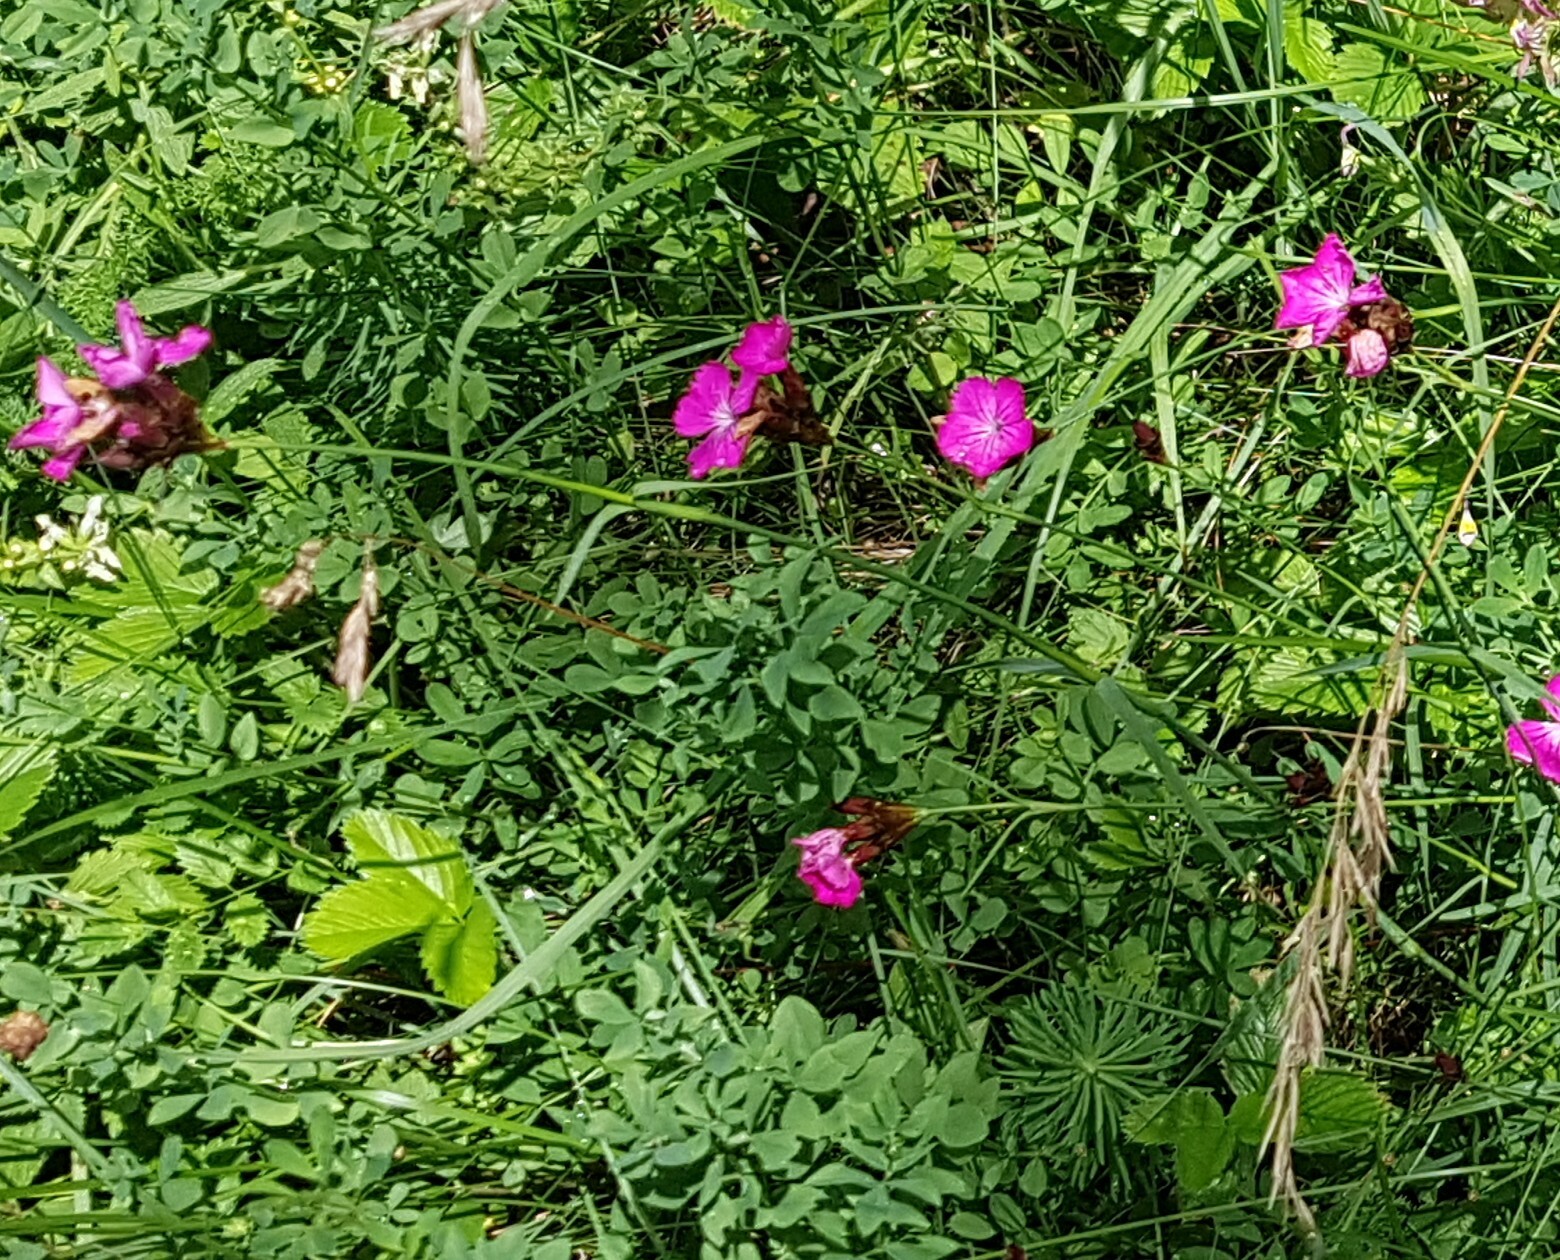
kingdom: Plantae
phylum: Tracheophyta
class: Magnoliopsida
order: Caryophyllales
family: Caryophyllaceae
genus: Dianthus
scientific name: Dianthus carthusianorum
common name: Carthusian pink
